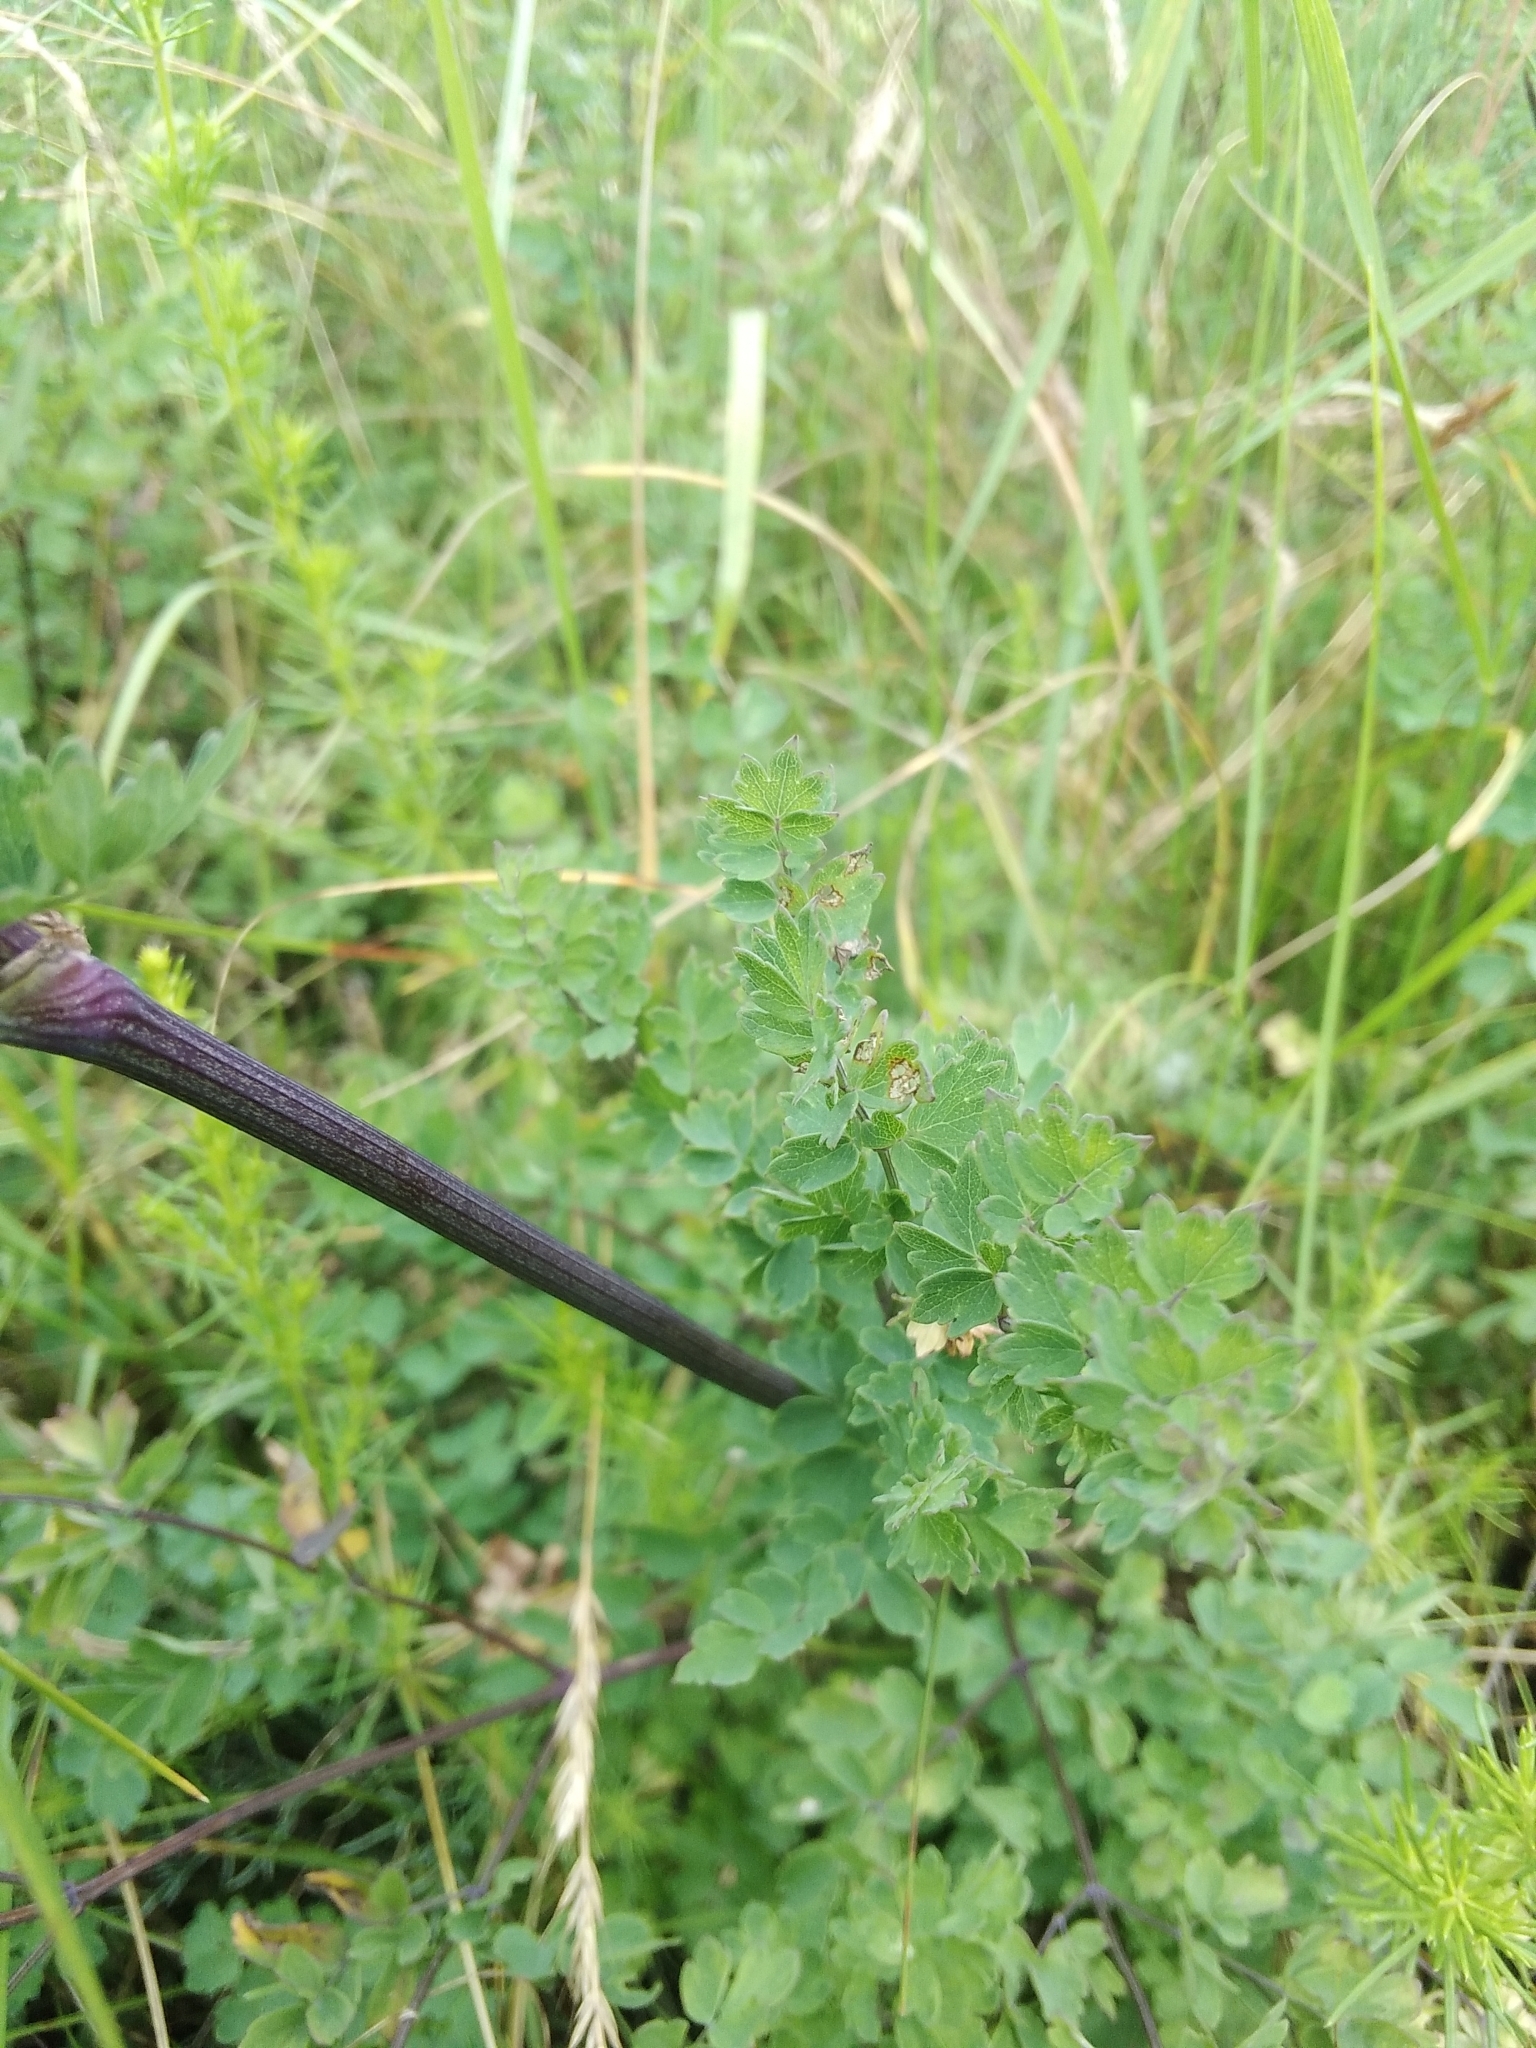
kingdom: Plantae
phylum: Tracheophyta
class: Magnoliopsida
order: Ranunculales
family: Ranunculaceae
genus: Thalictrum
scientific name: Thalictrum minus
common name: Lesser meadow-rue
